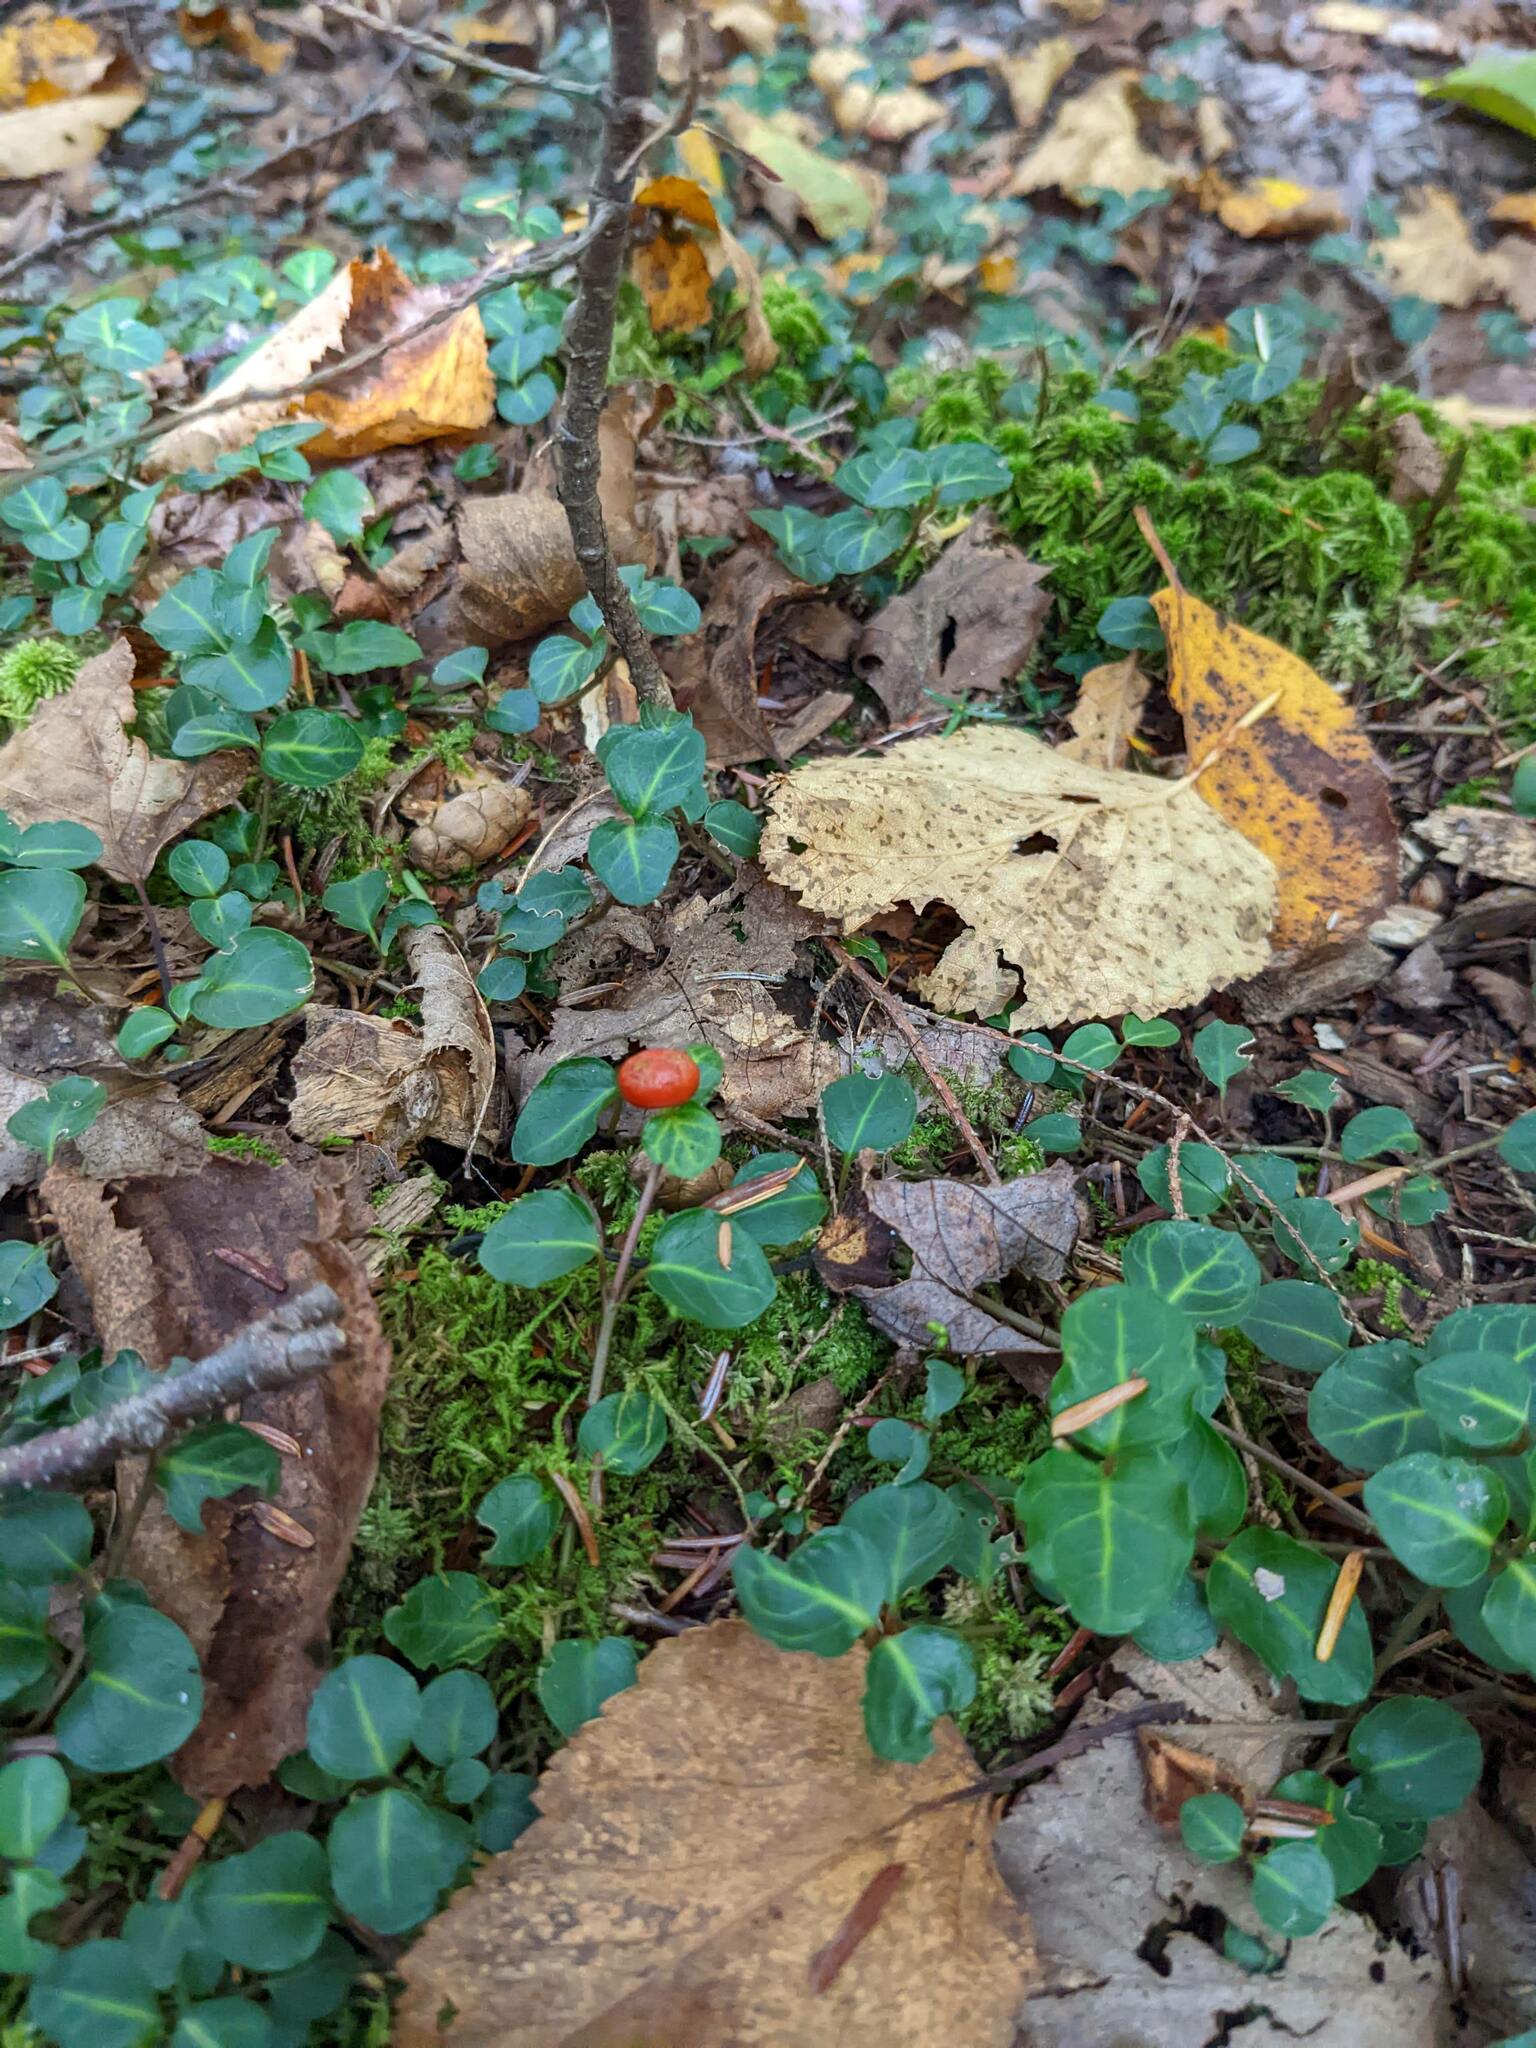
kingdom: Plantae
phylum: Tracheophyta
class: Magnoliopsida
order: Gentianales
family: Rubiaceae
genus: Mitchella
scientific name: Mitchella repens
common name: Partridge-berry
